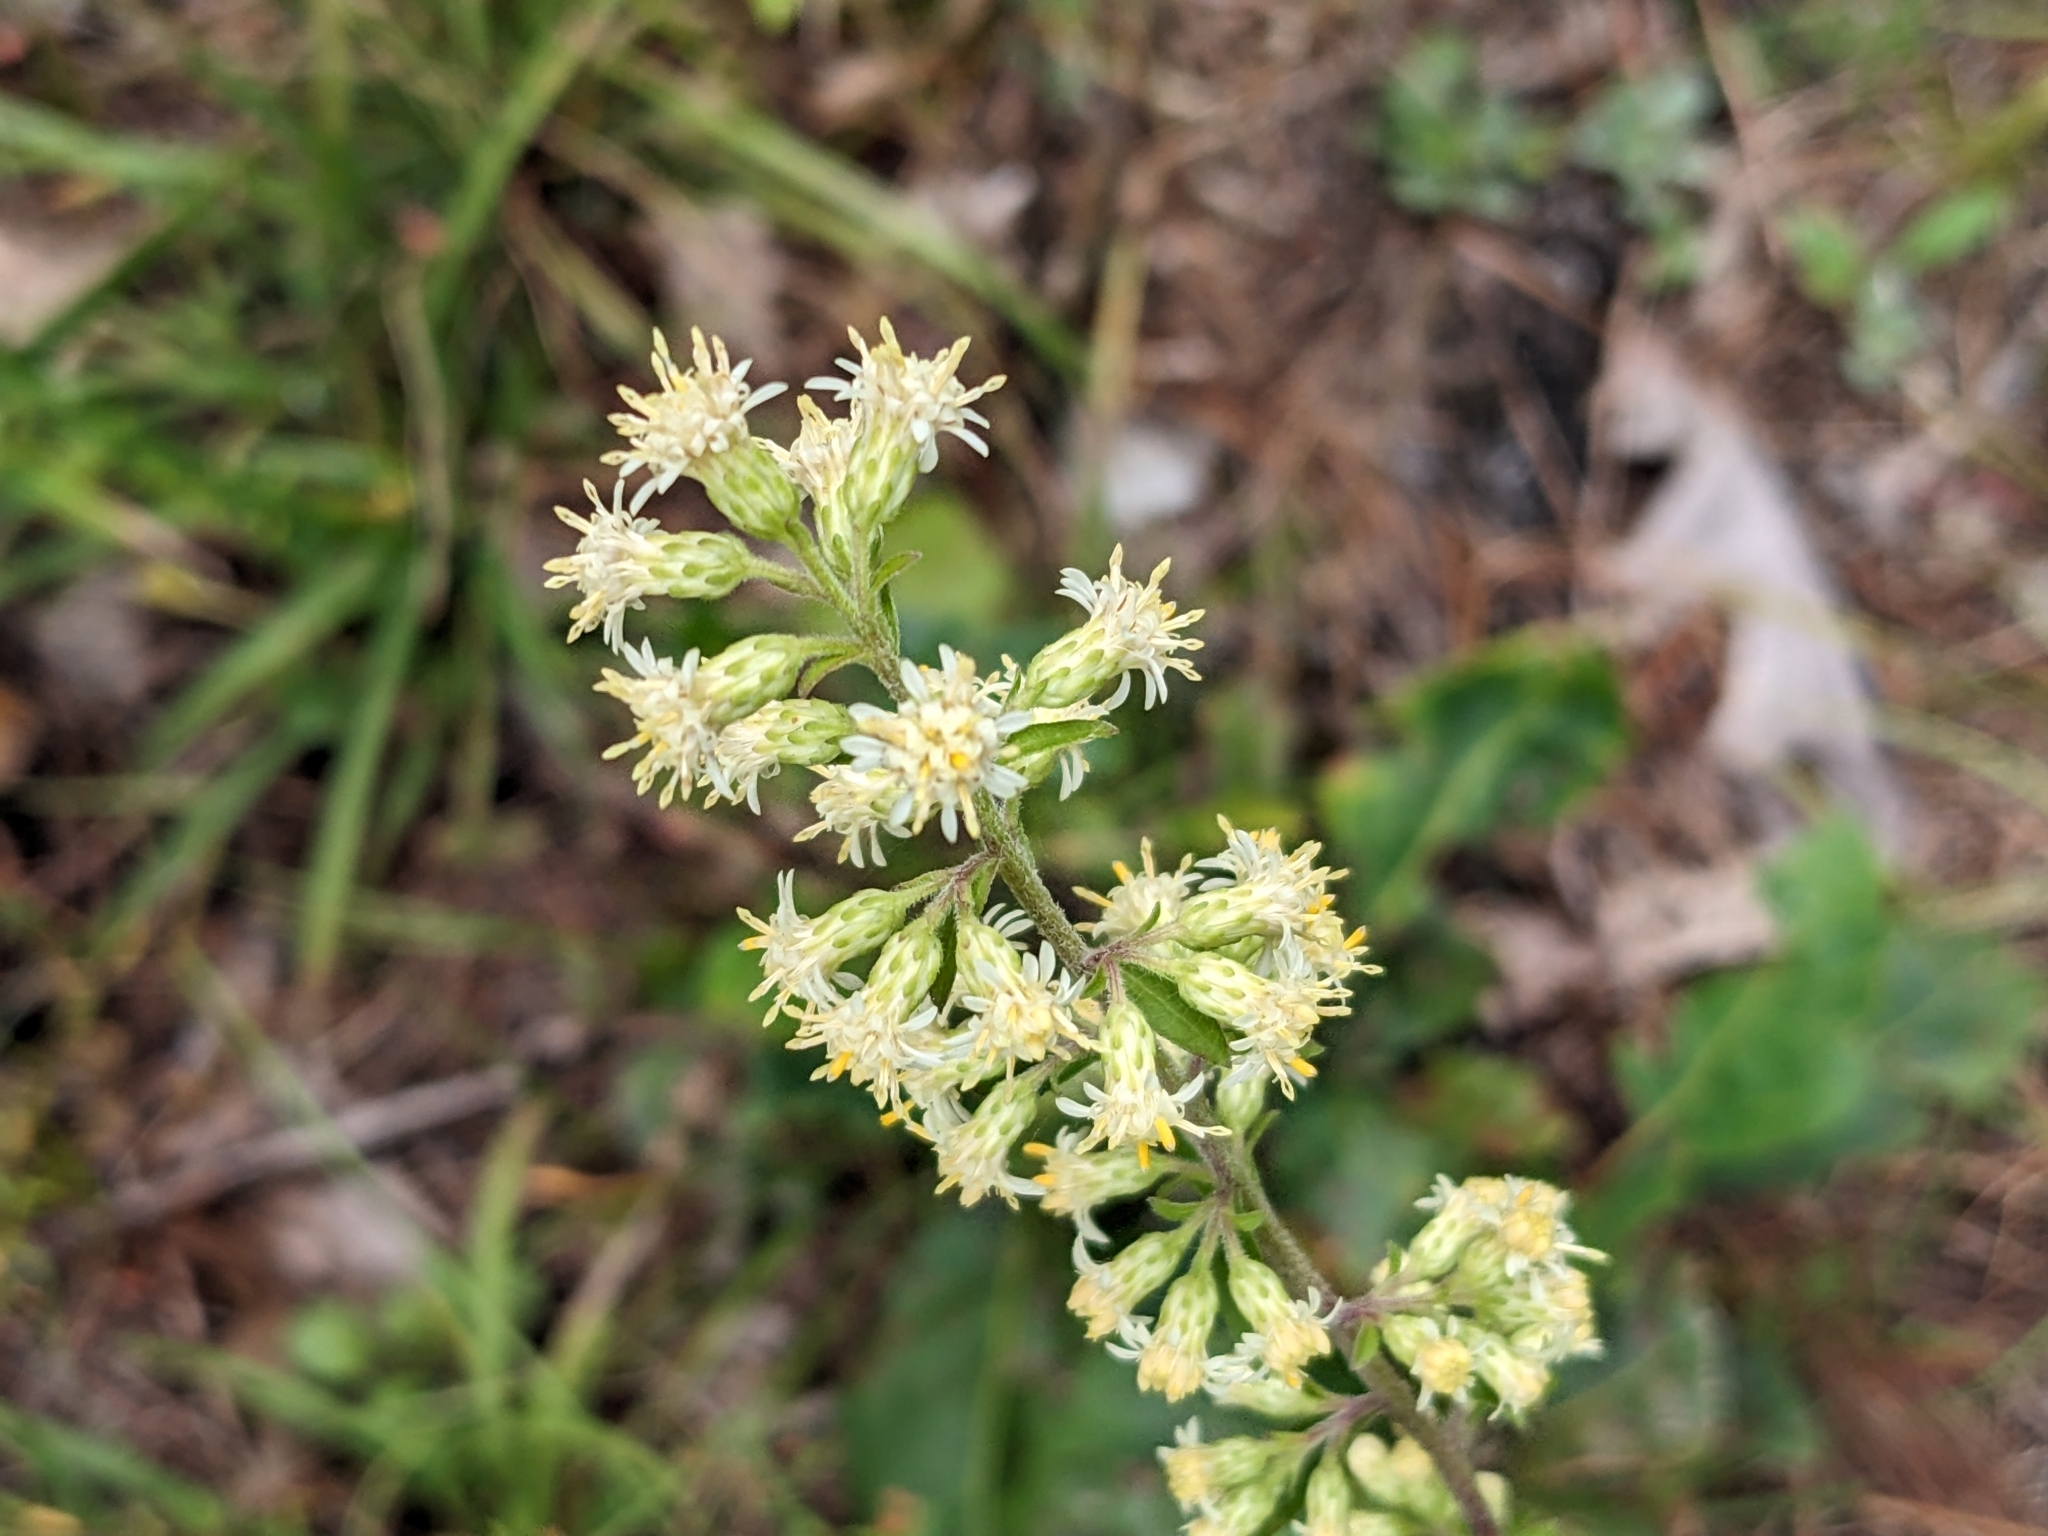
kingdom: Plantae
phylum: Tracheophyta
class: Magnoliopsida
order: Asterales
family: Asteraceae
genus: Solidago
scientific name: Solidago bicolor
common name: Silverrod
